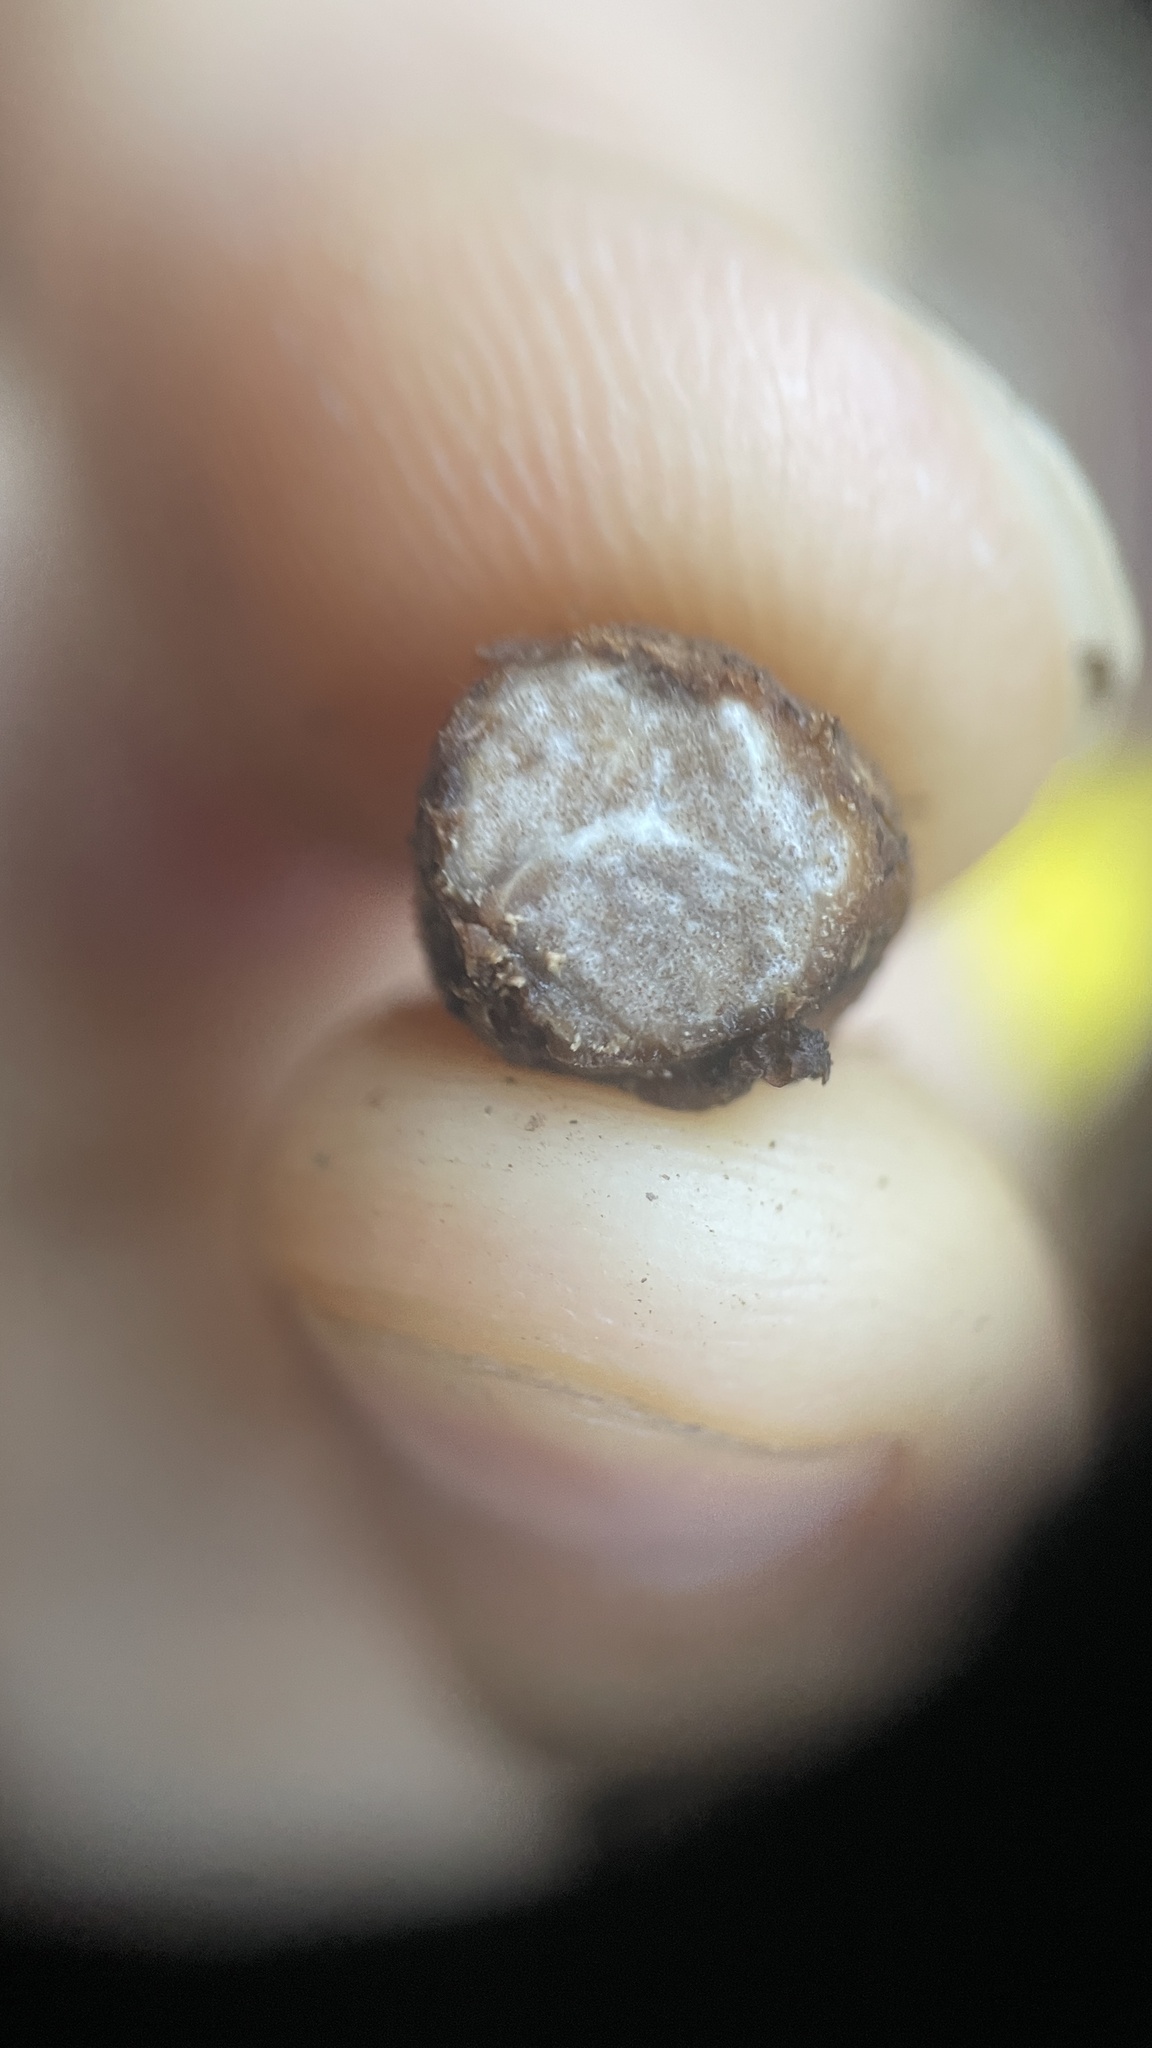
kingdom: Fungi
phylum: Ascomycota
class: Pezizomycetes
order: Pezizales
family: Tuberaceae
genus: Tuber
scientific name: Tuber beyerlei
